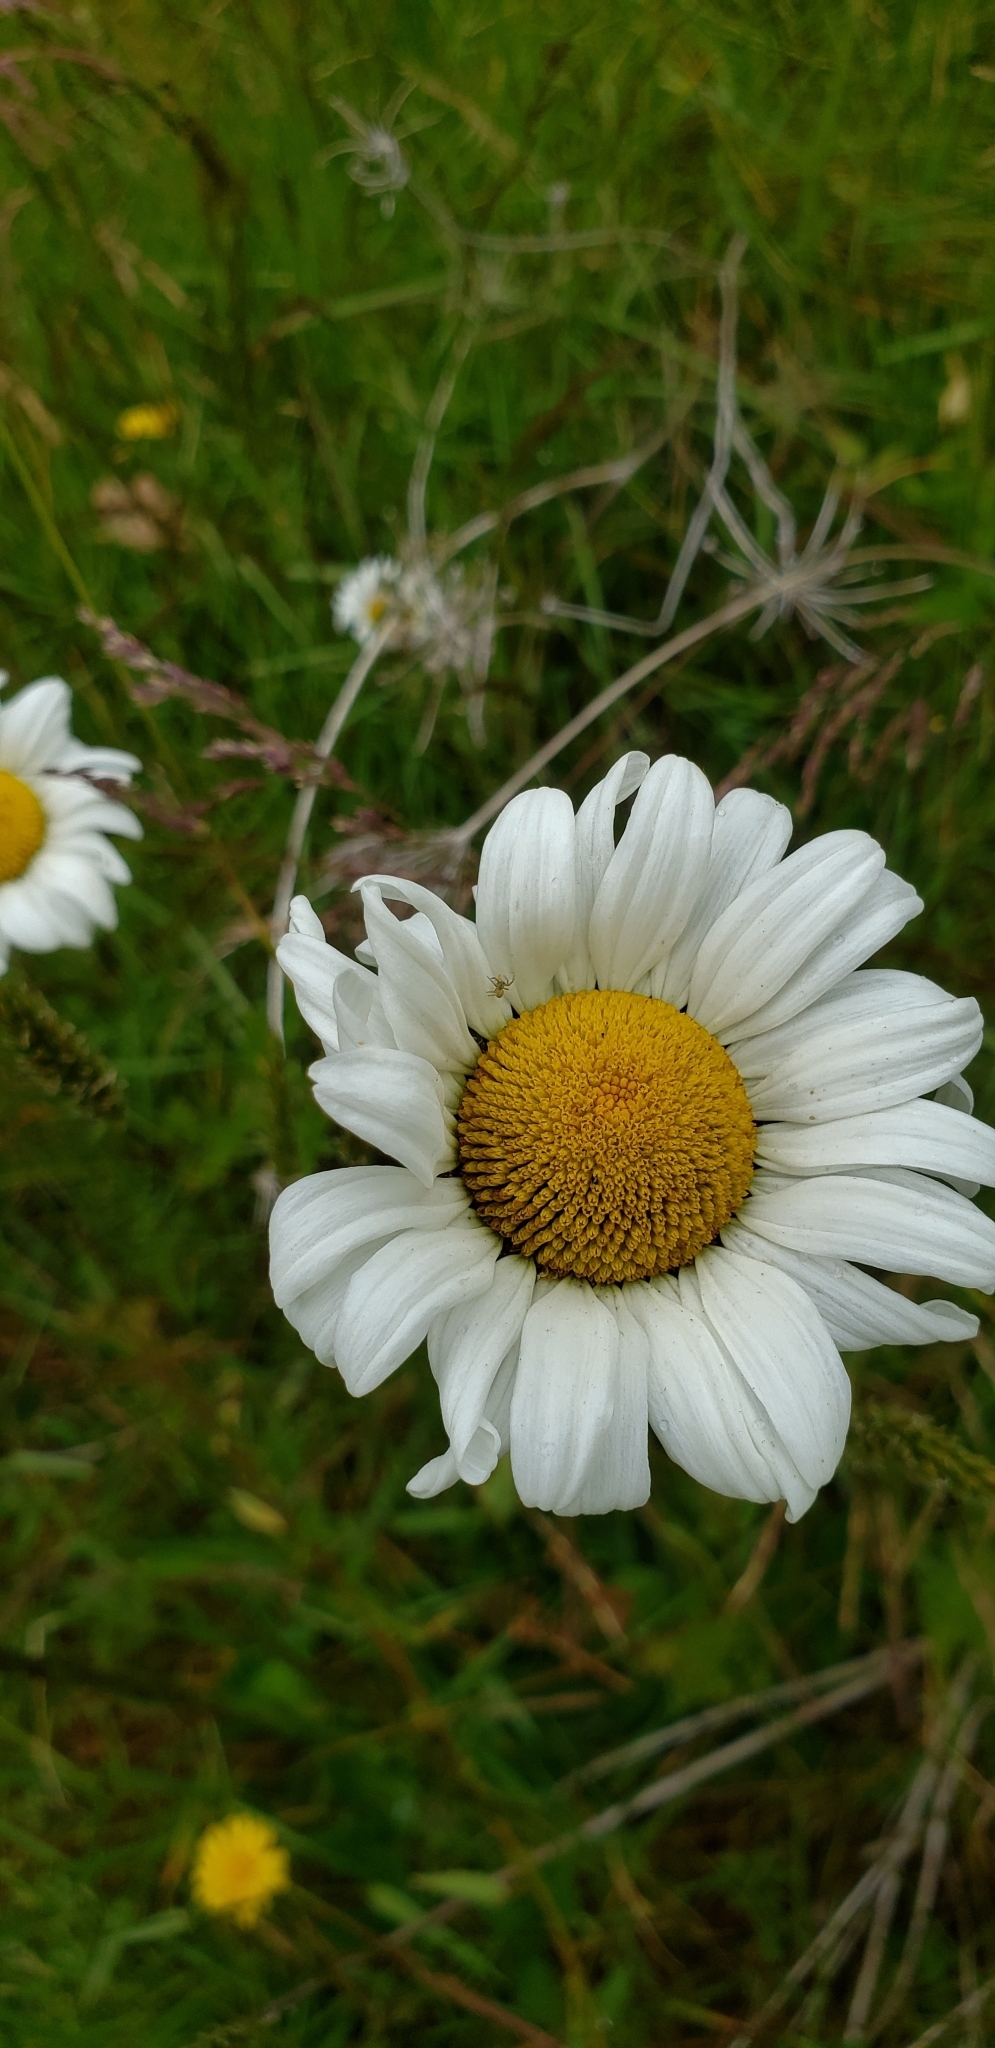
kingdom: Plantae
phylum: Tracheophyta
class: Magnoliopsida
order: Asterales
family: Asteraceae
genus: Leucanthemum
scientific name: Leucanthemum vulgare
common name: Oxeye daisy
